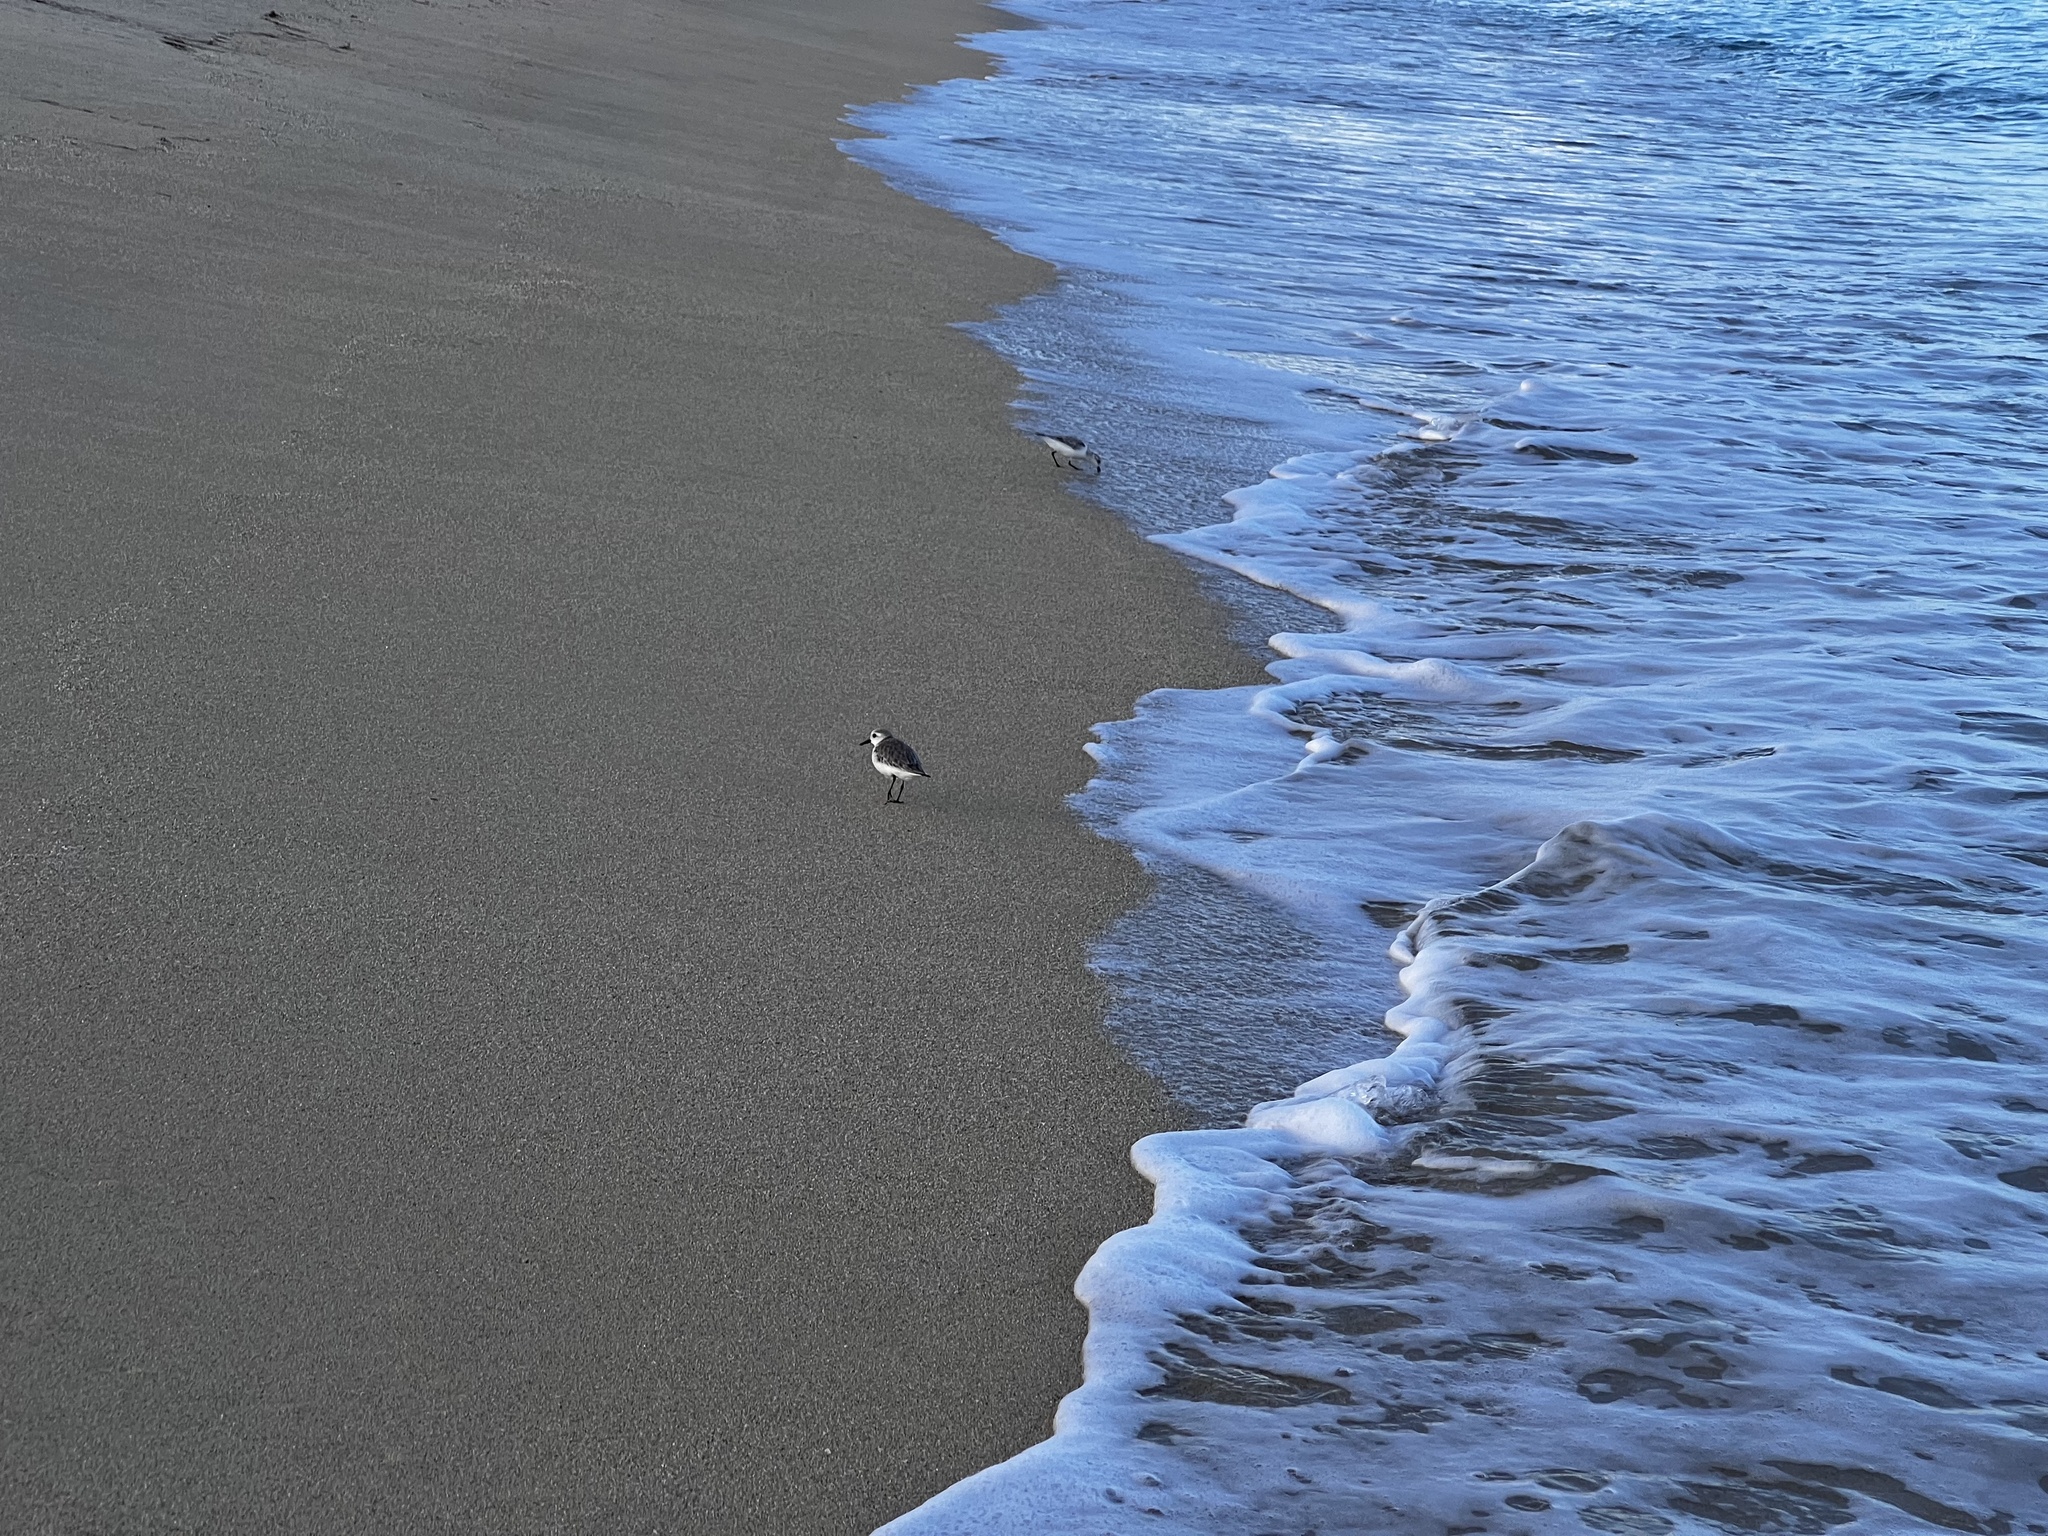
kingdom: Animalia
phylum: Chordata
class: Aves
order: Charadriiformes
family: Scolopacidae
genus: Calidris
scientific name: Calidris alba
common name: Sanderling
